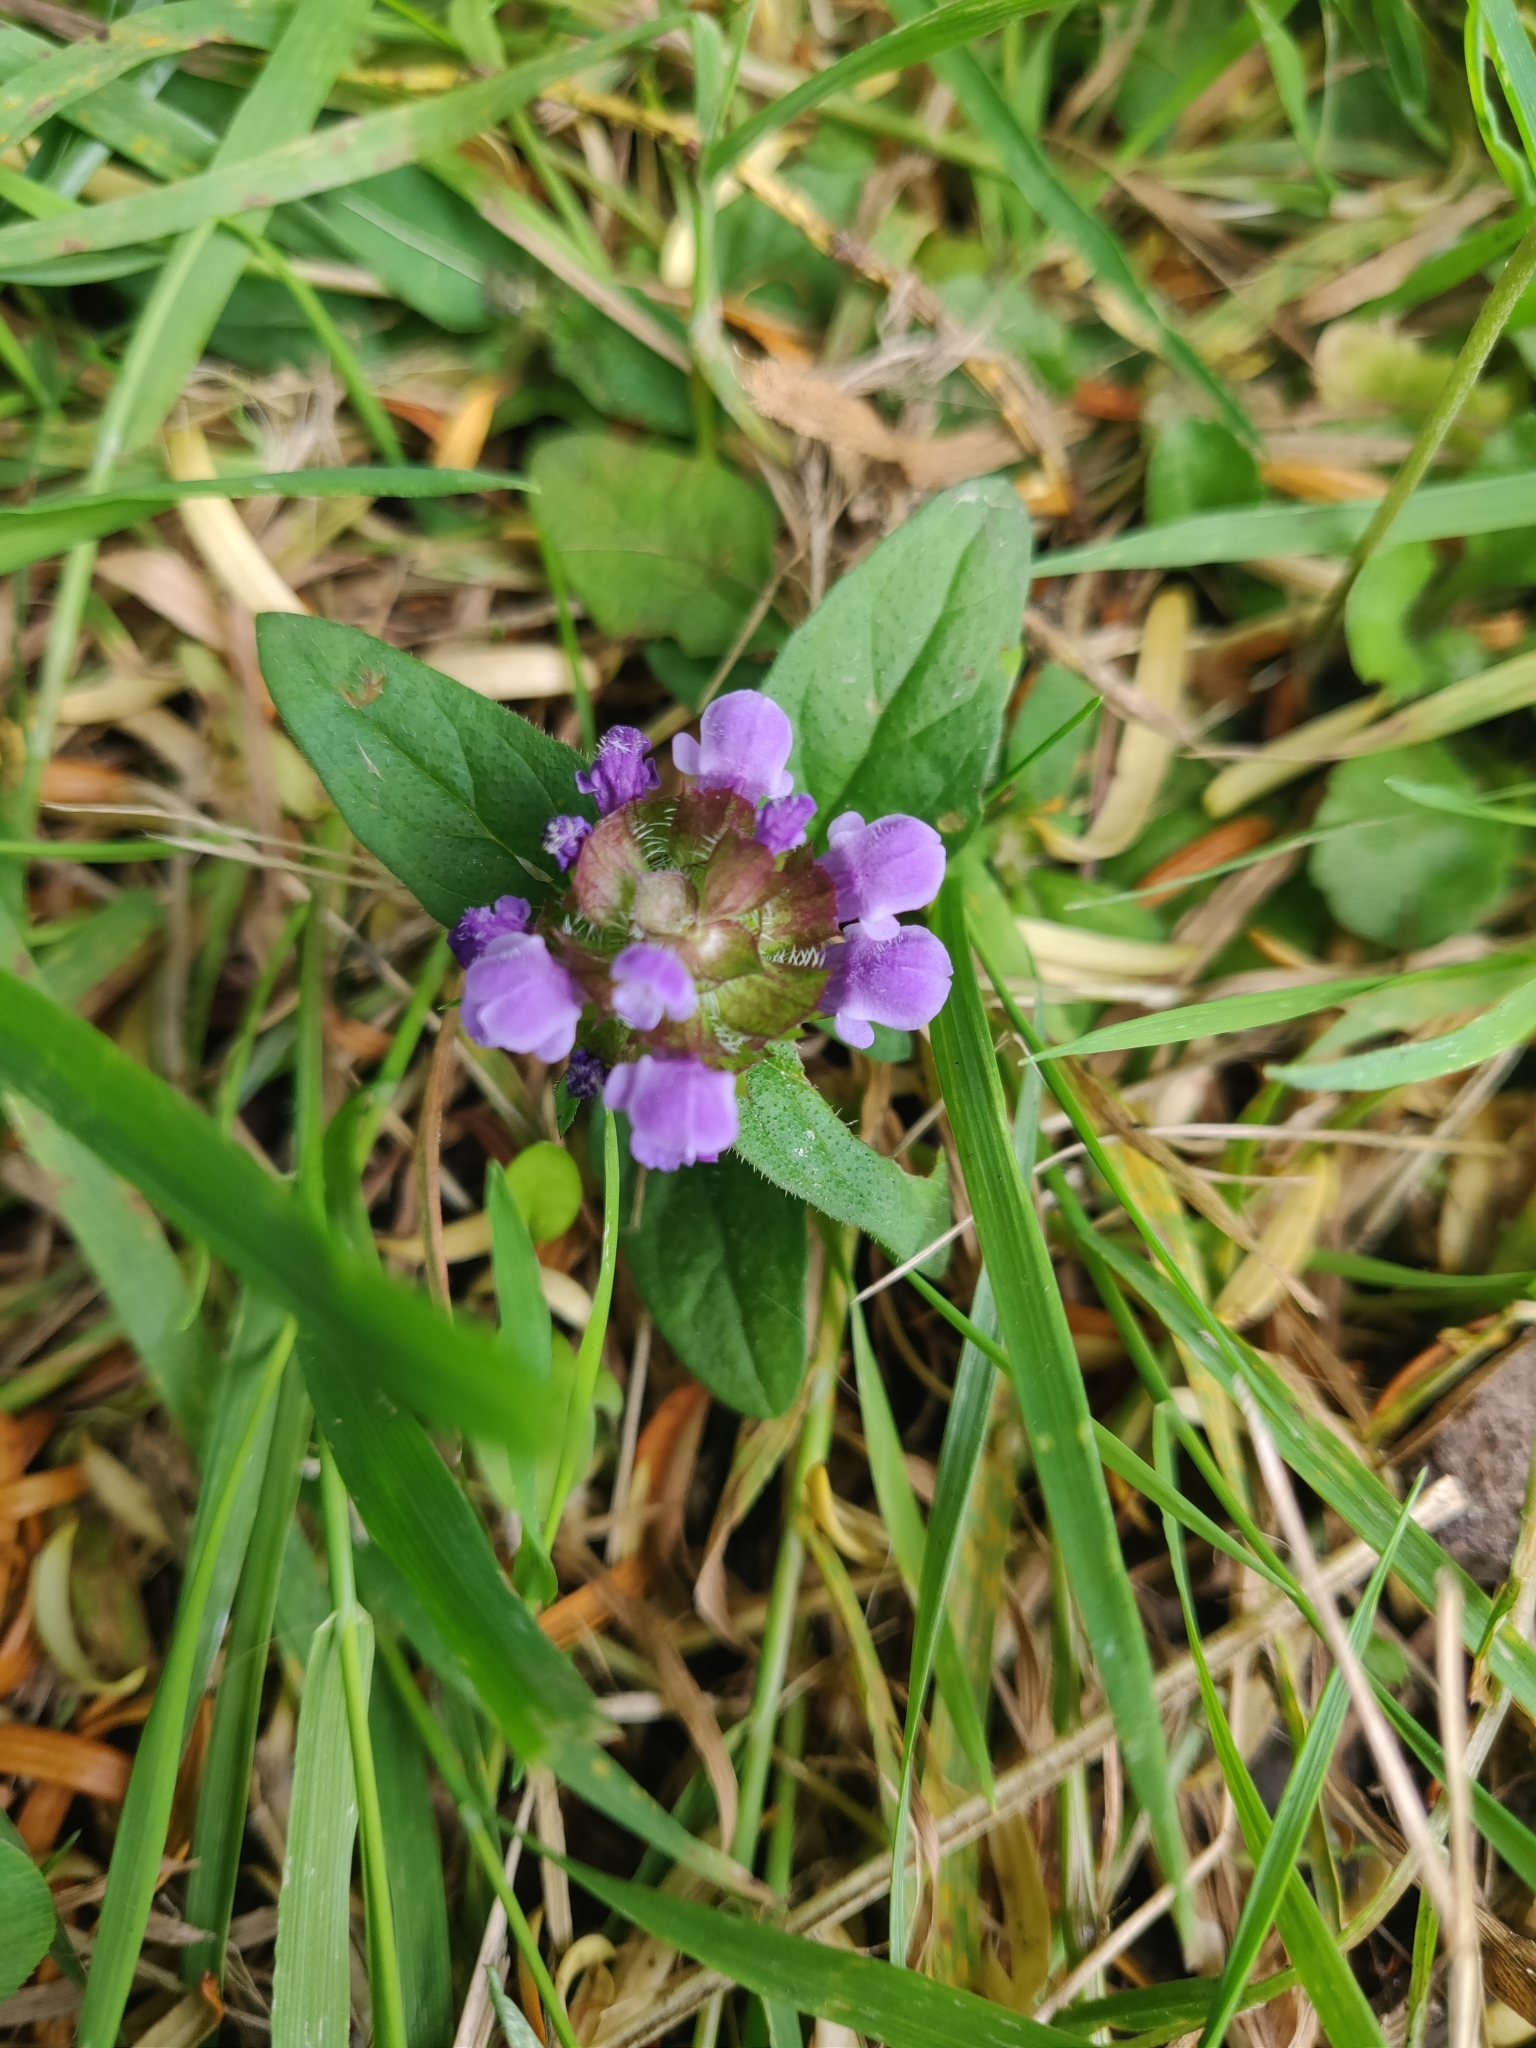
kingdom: Plantae
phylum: Tracheophyta
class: Magnoliopsida
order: Lamiales
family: Lamiaceae
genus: Prunella
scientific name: Prunella vulgaris
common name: Heal-all
